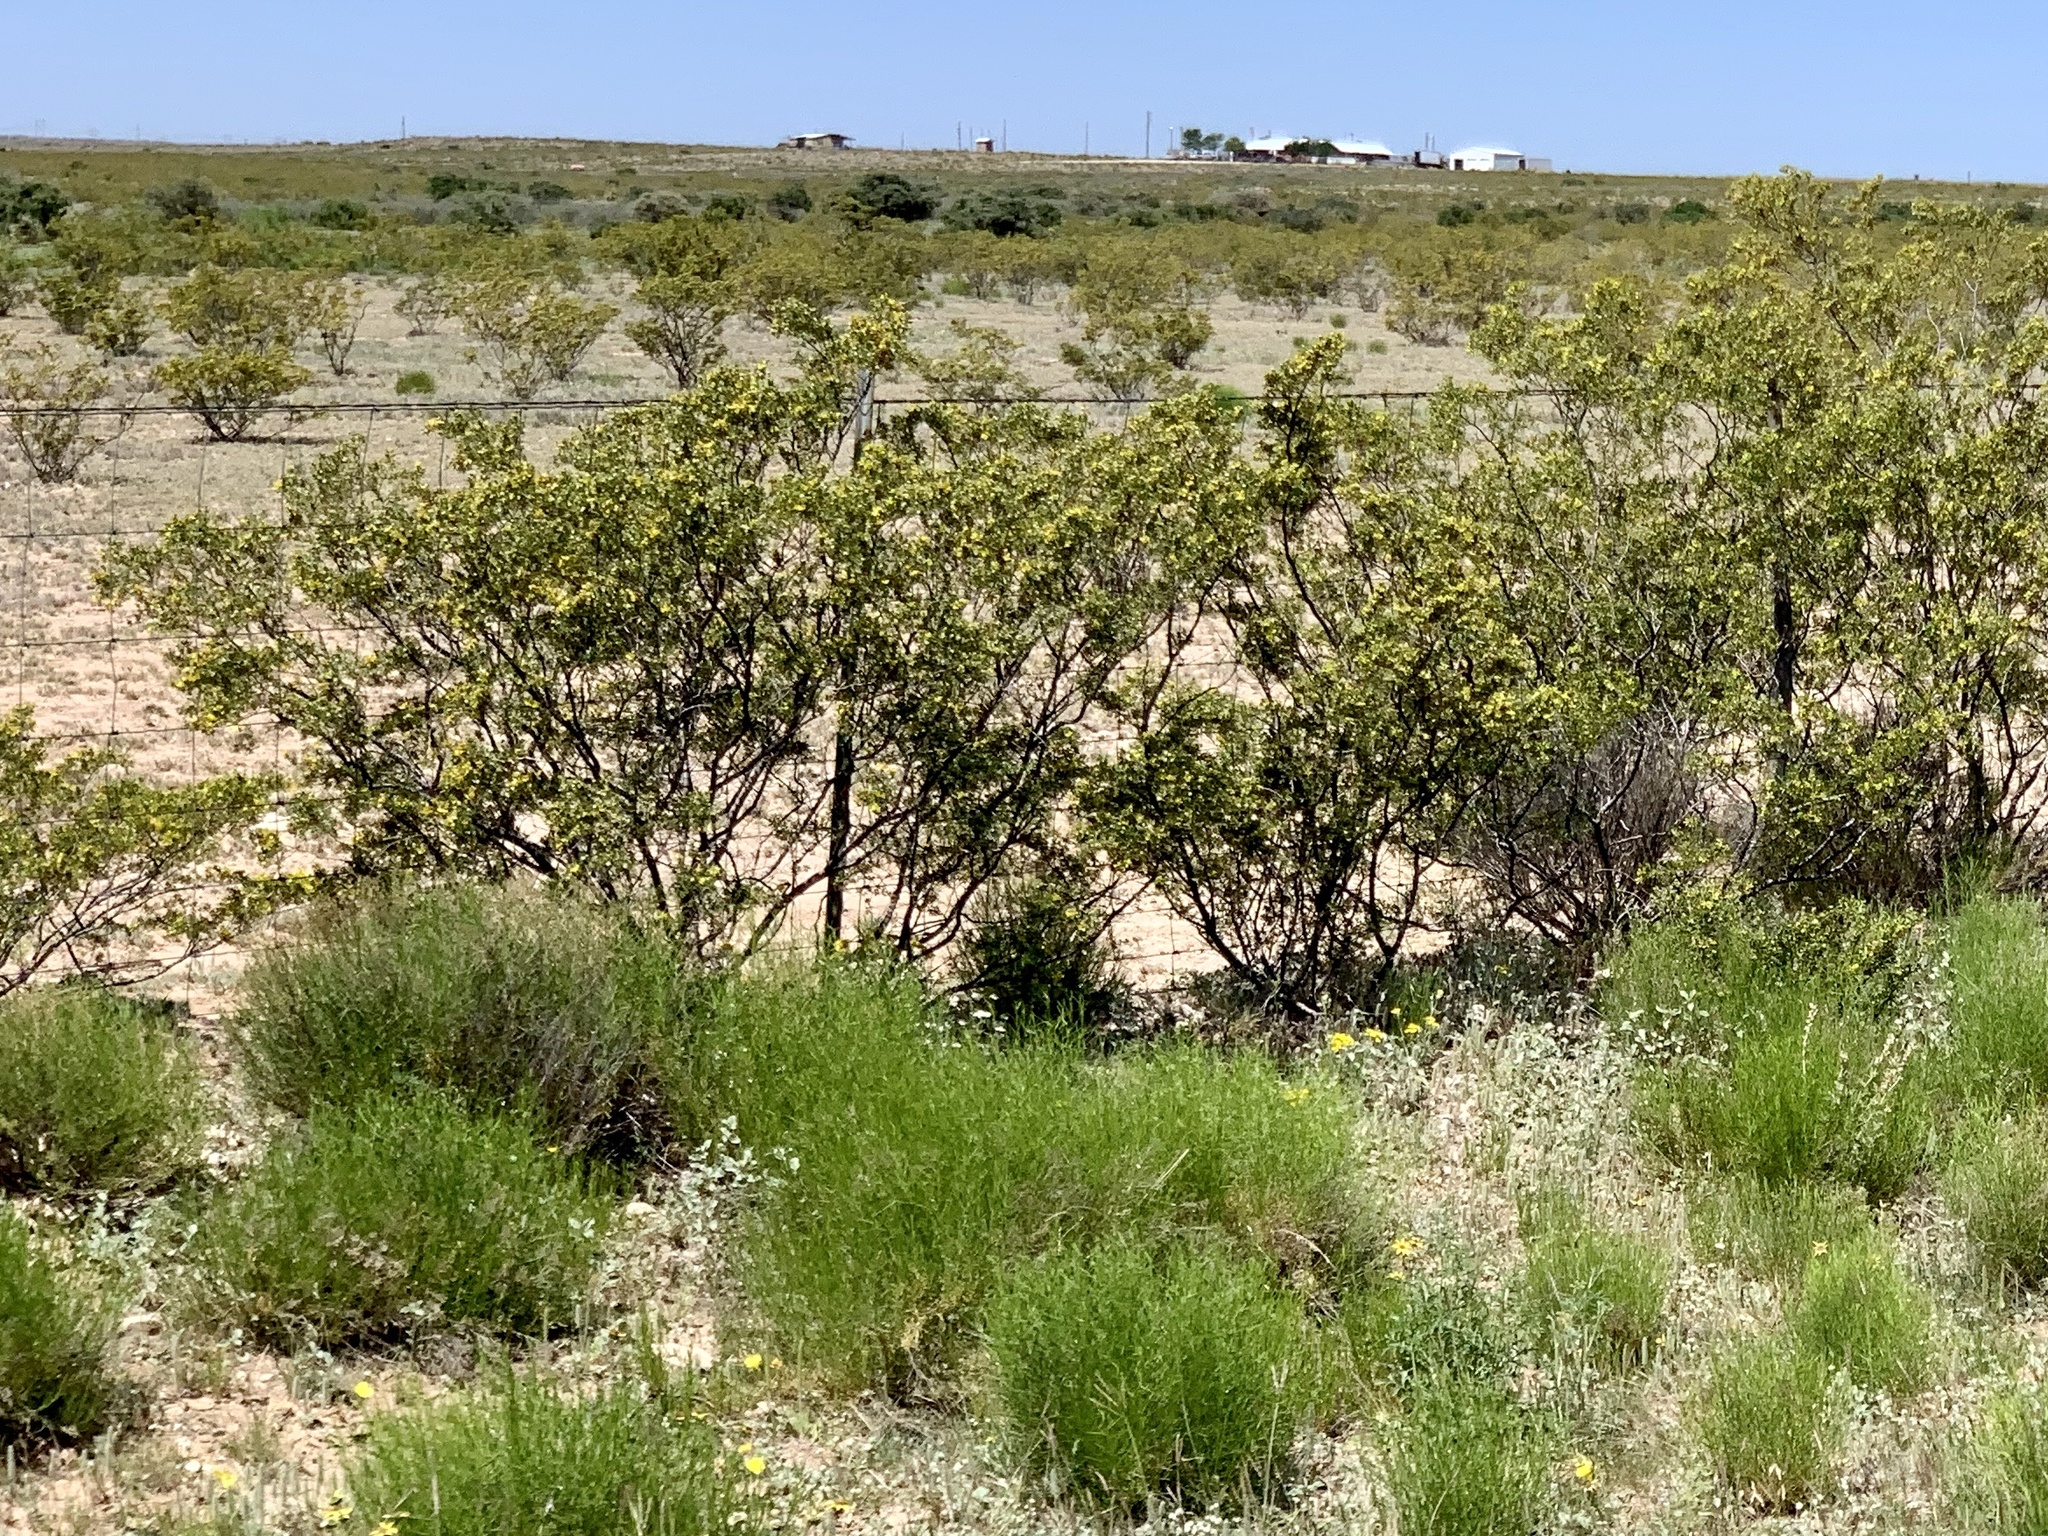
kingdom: Plantae
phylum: Tracheophyta
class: Magnoliopsida
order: Zygophyllales
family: Zygophyllaceae
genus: Larrea
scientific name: Larrea tridentata
